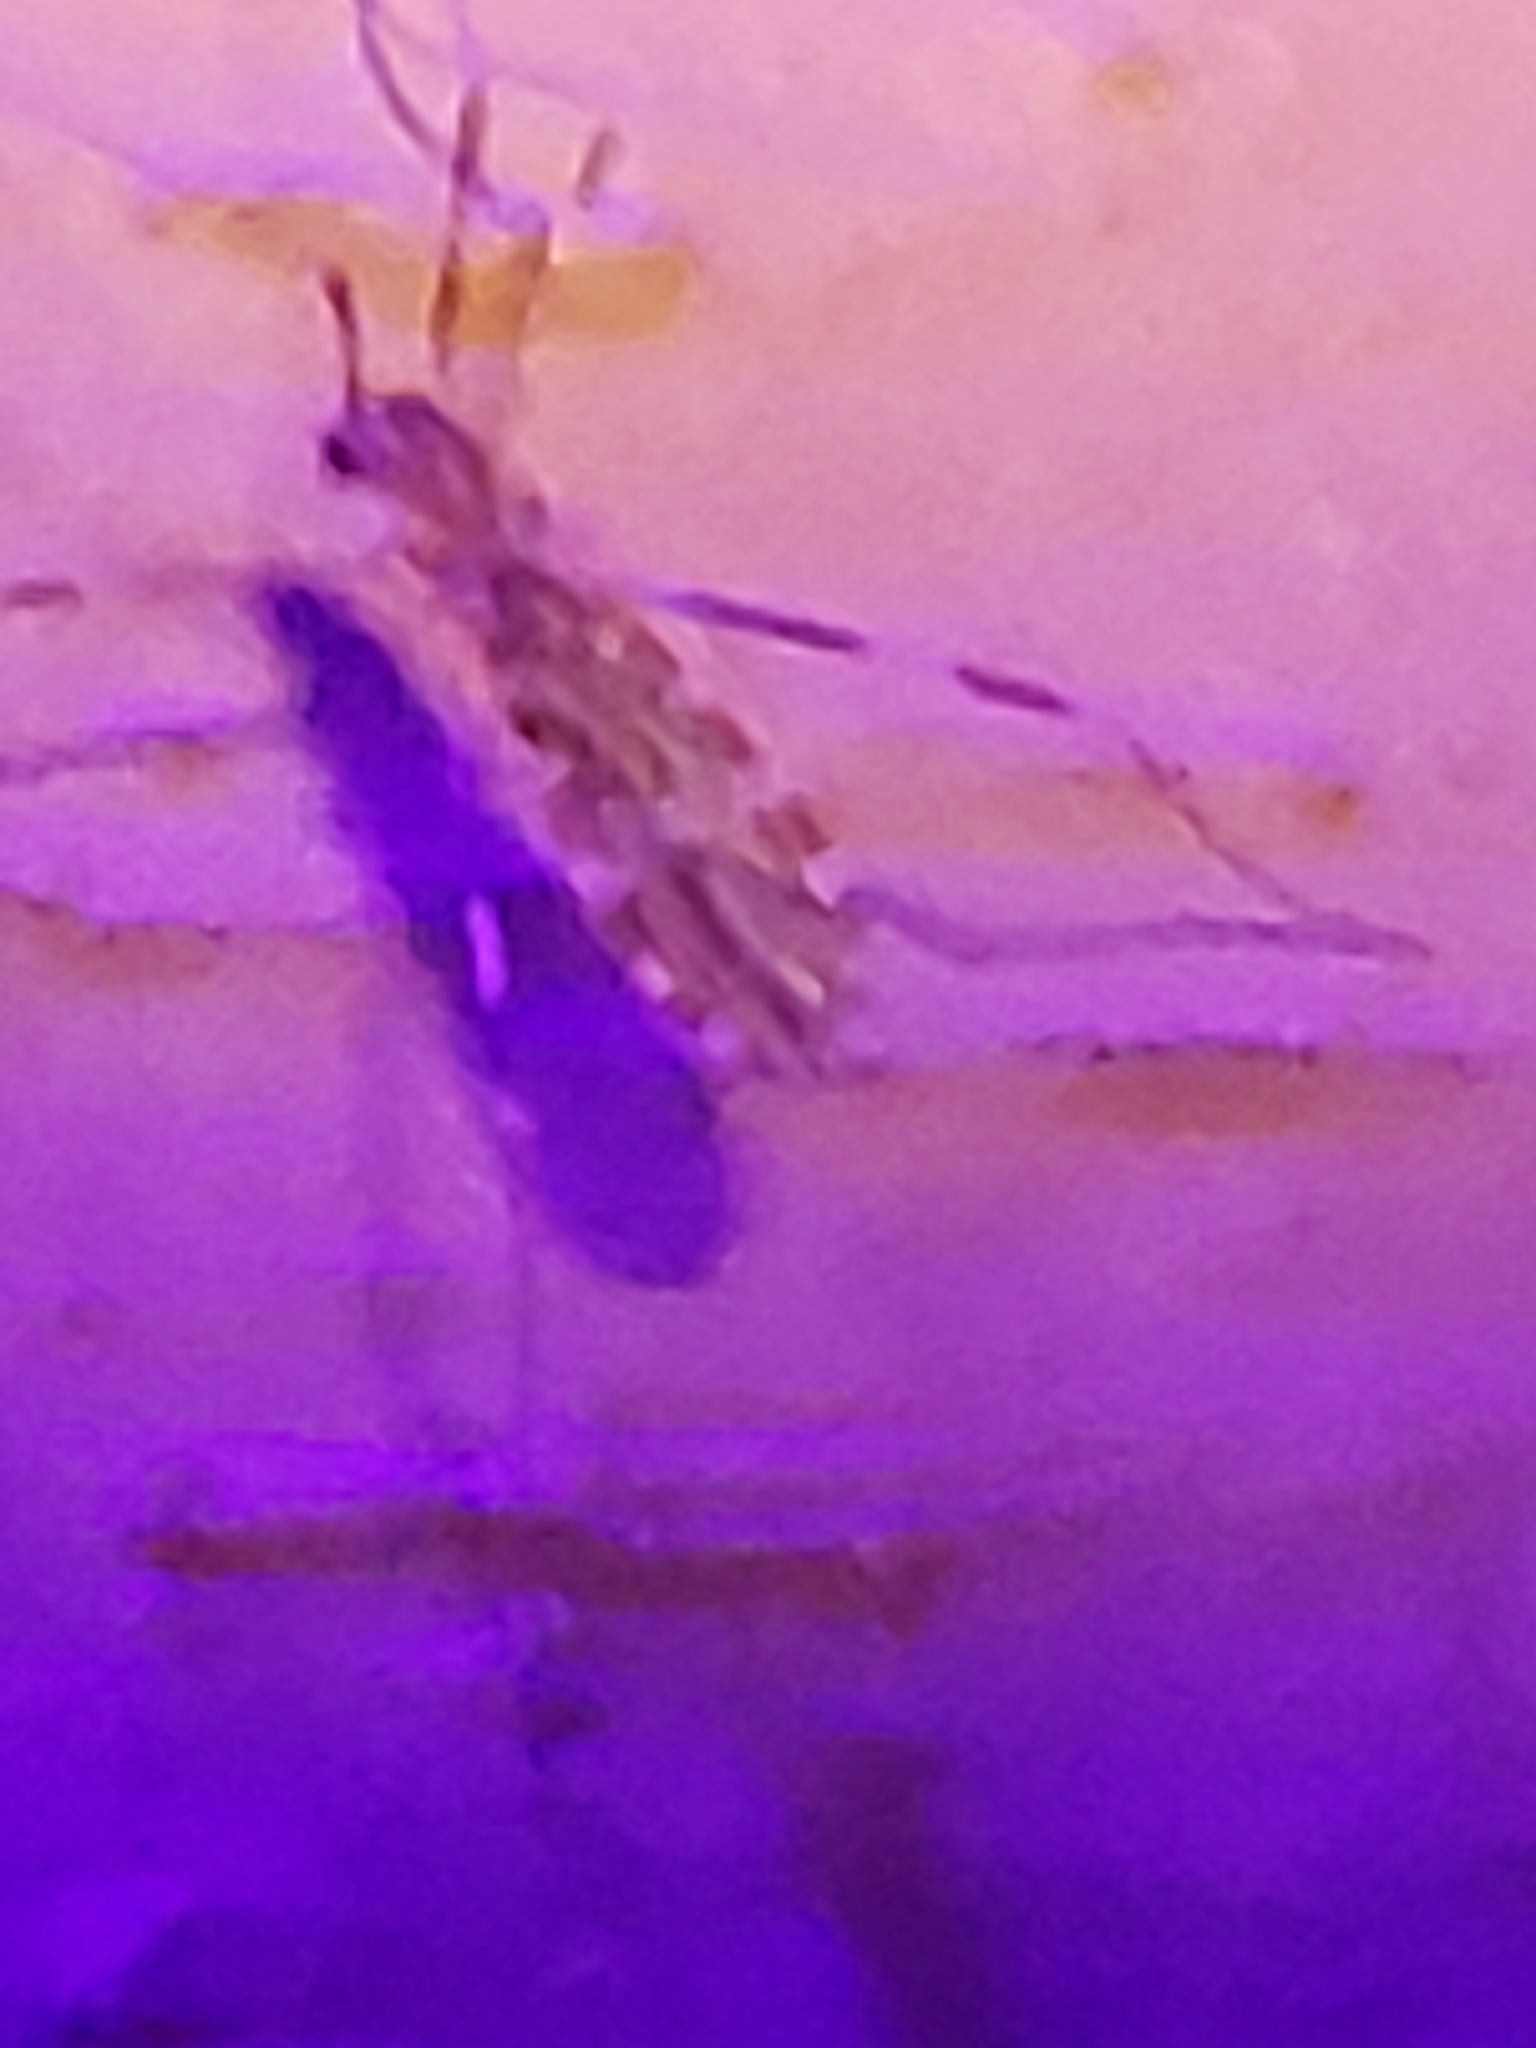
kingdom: Animalia
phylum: Arthropoda
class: Insecta
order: Diptera
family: Limoniidae
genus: Erioptera
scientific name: Erioptera caliptera
